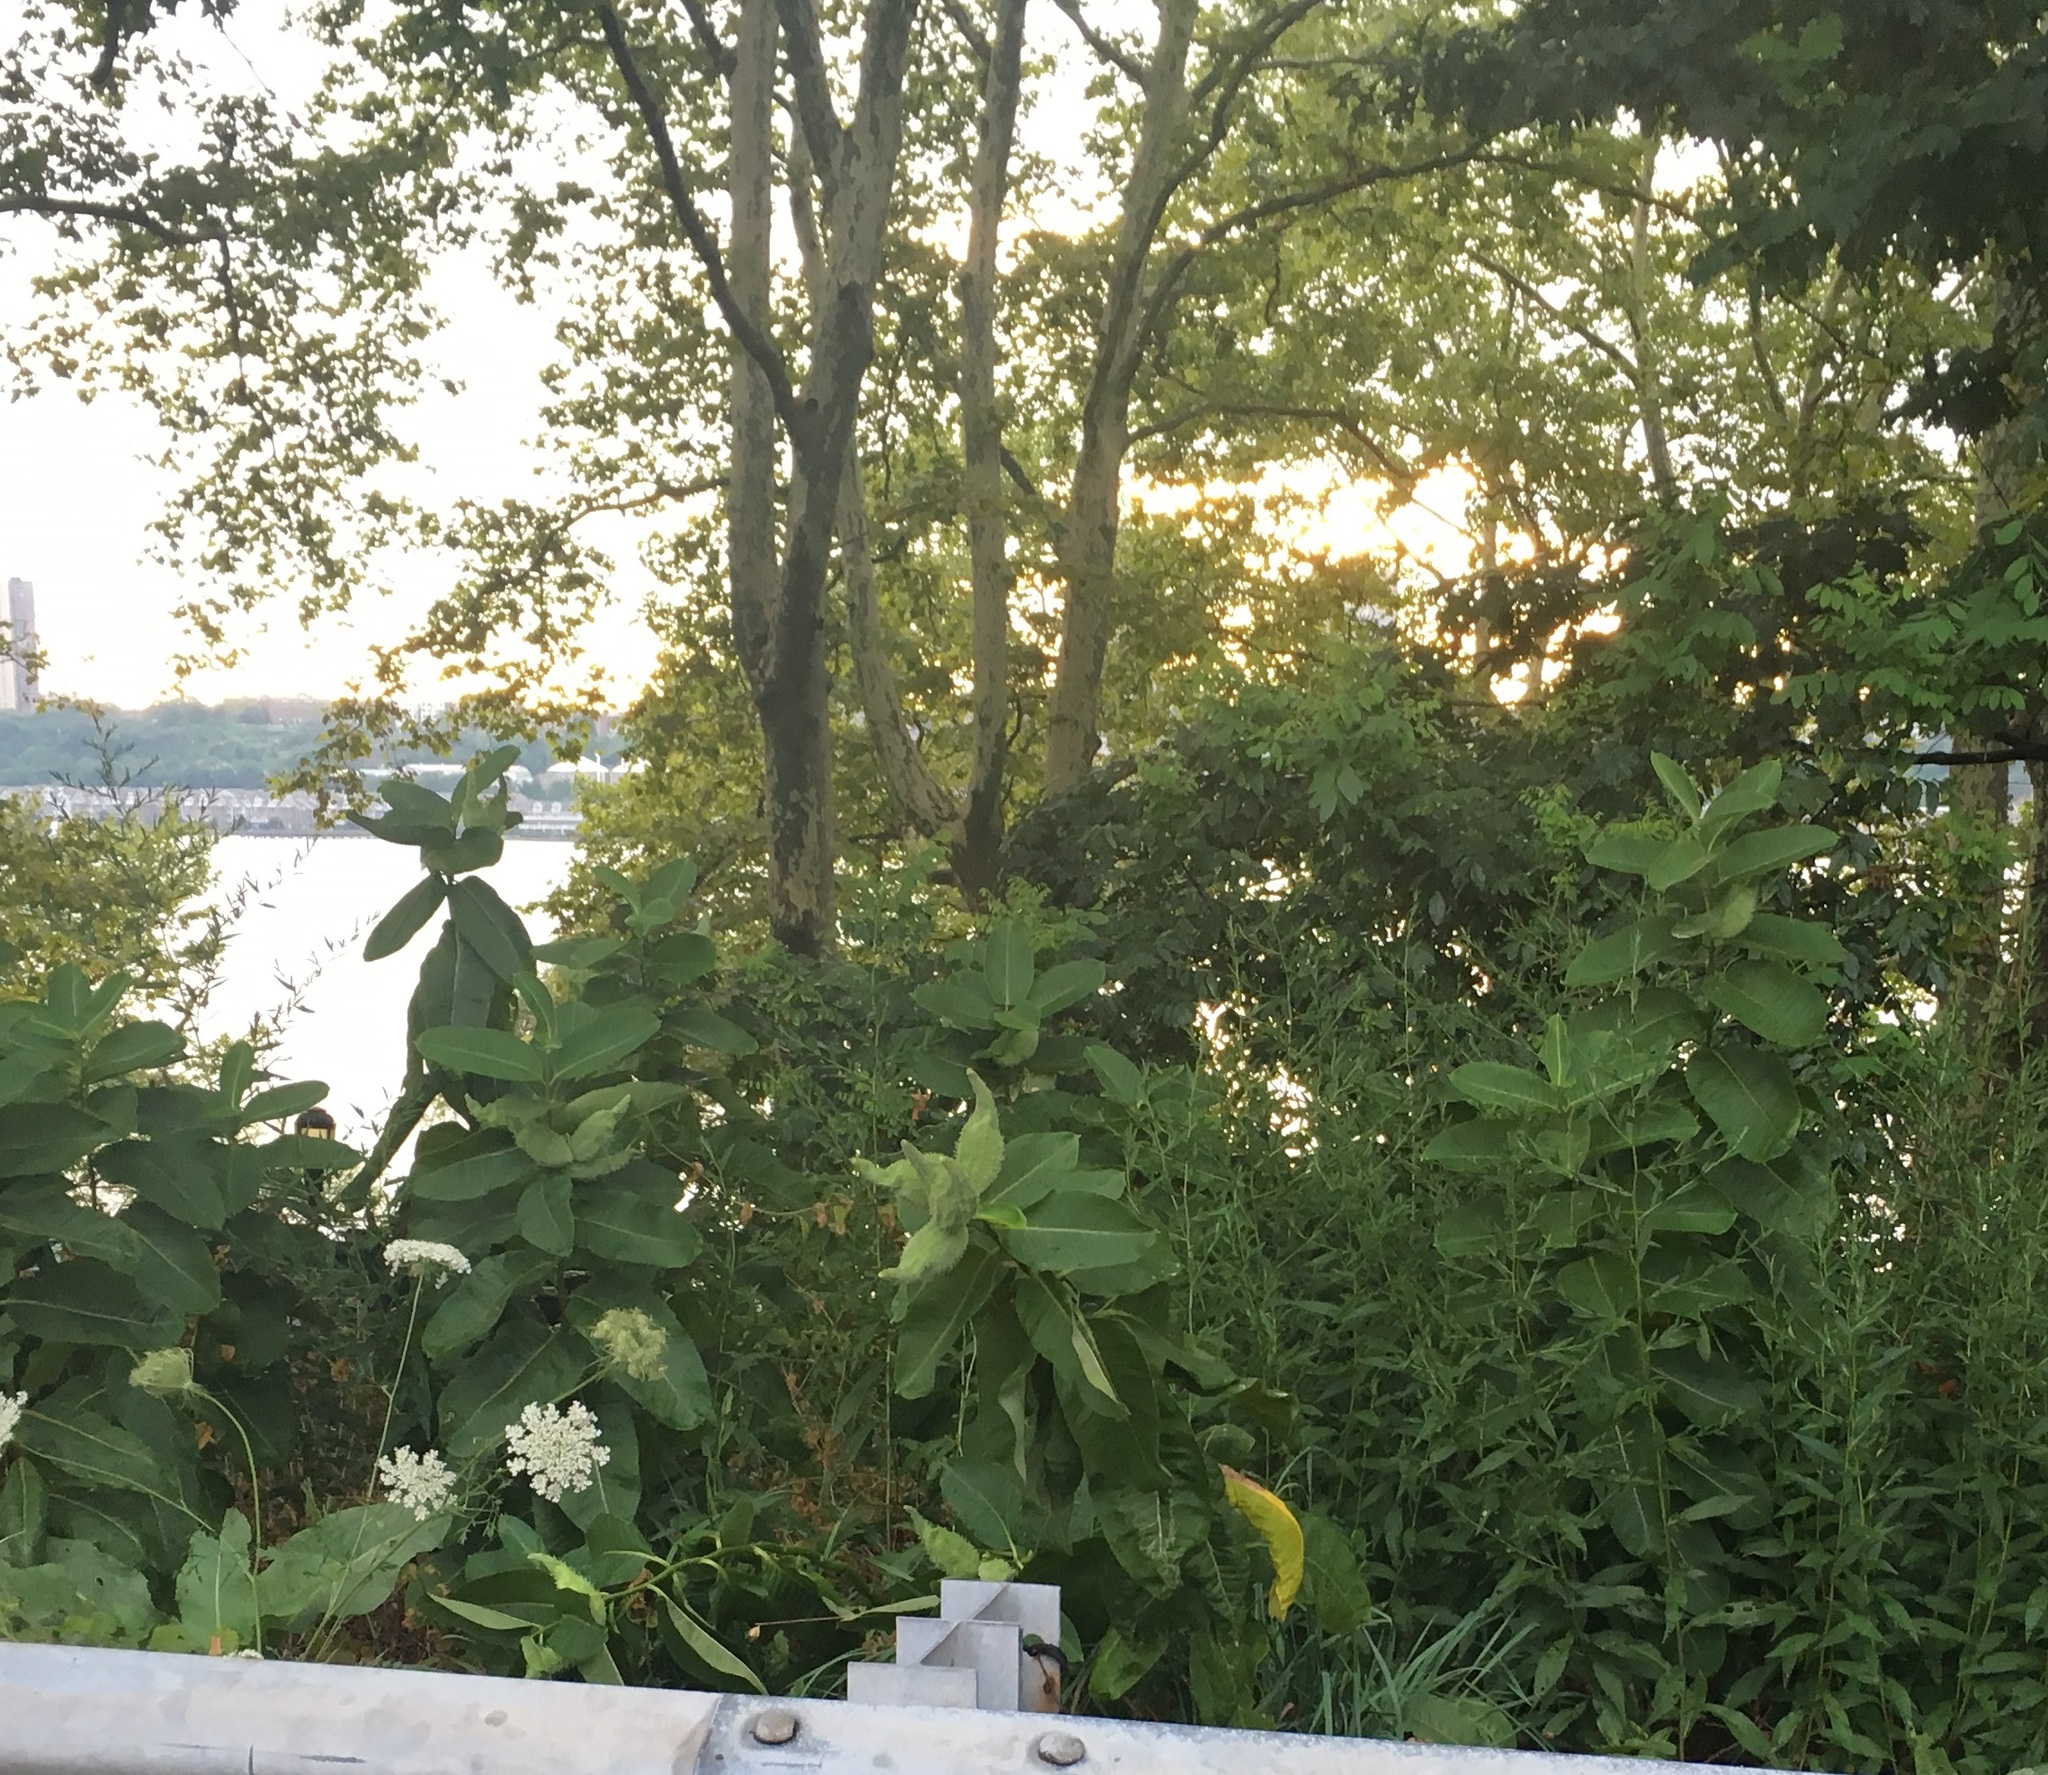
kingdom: Plantae
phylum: Tracheophyta
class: Magnoliopsida
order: Gentianales
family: Apocynaceae
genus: Asclepias
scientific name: Asclepias syriaca
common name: Common milkweed
